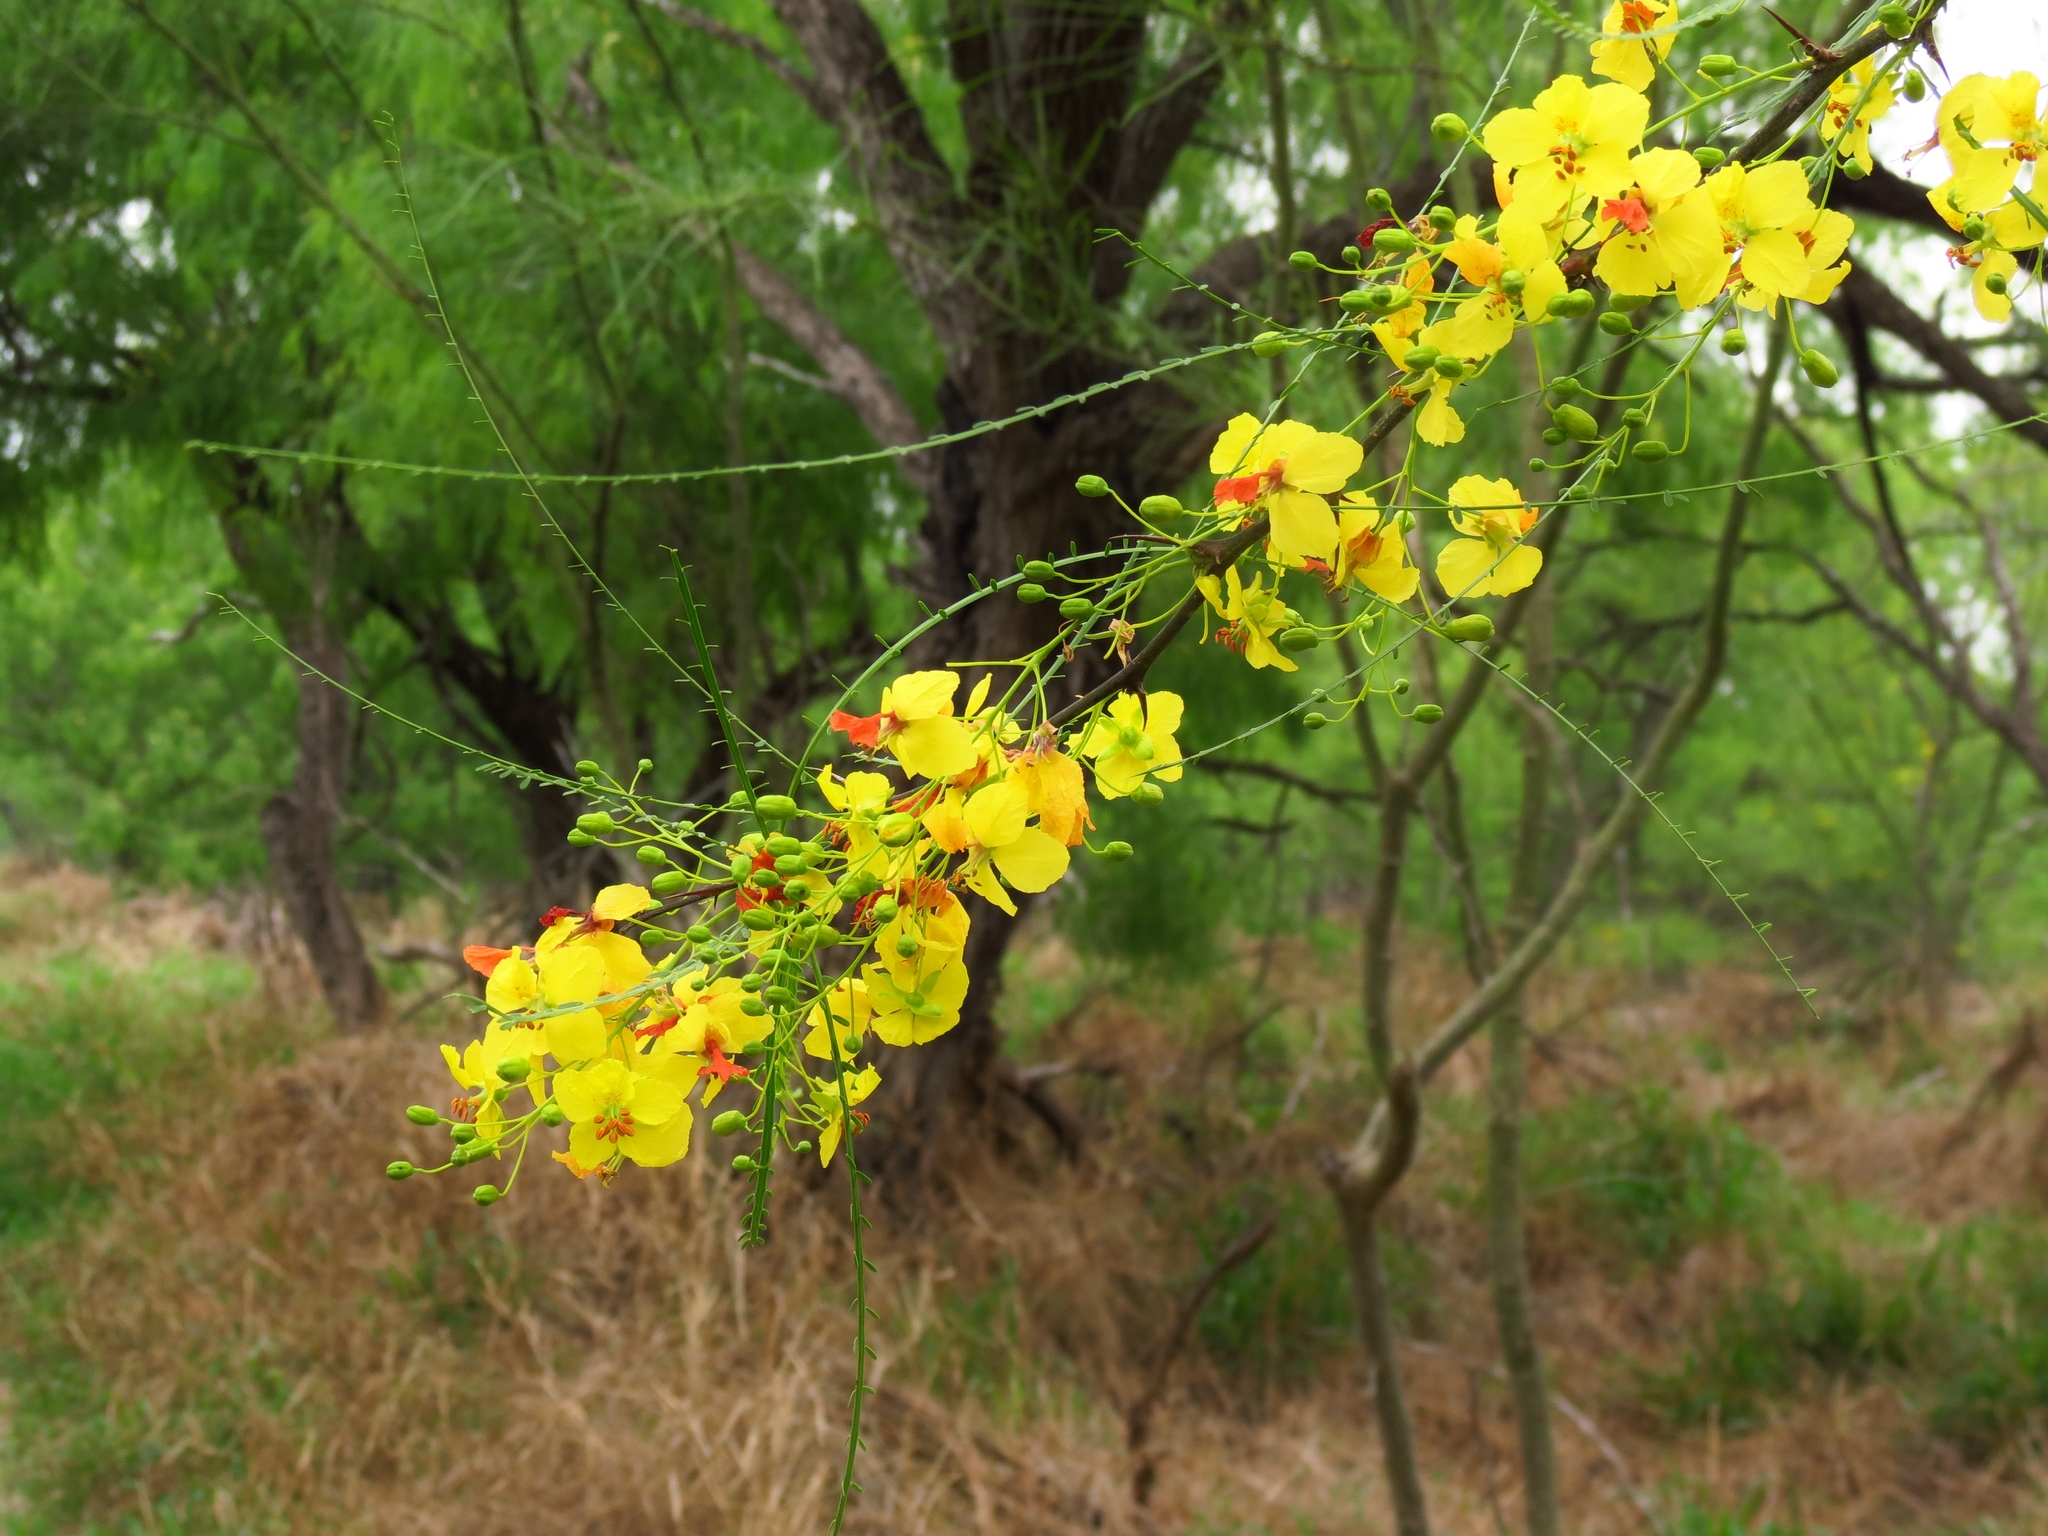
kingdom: Plantae
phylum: Tracheophyta
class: Magnoliopsida
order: Fabales
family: Fabaceae
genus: Parkinsonia
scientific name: Parkinsonia aculeata
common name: Jerusalem thorn
